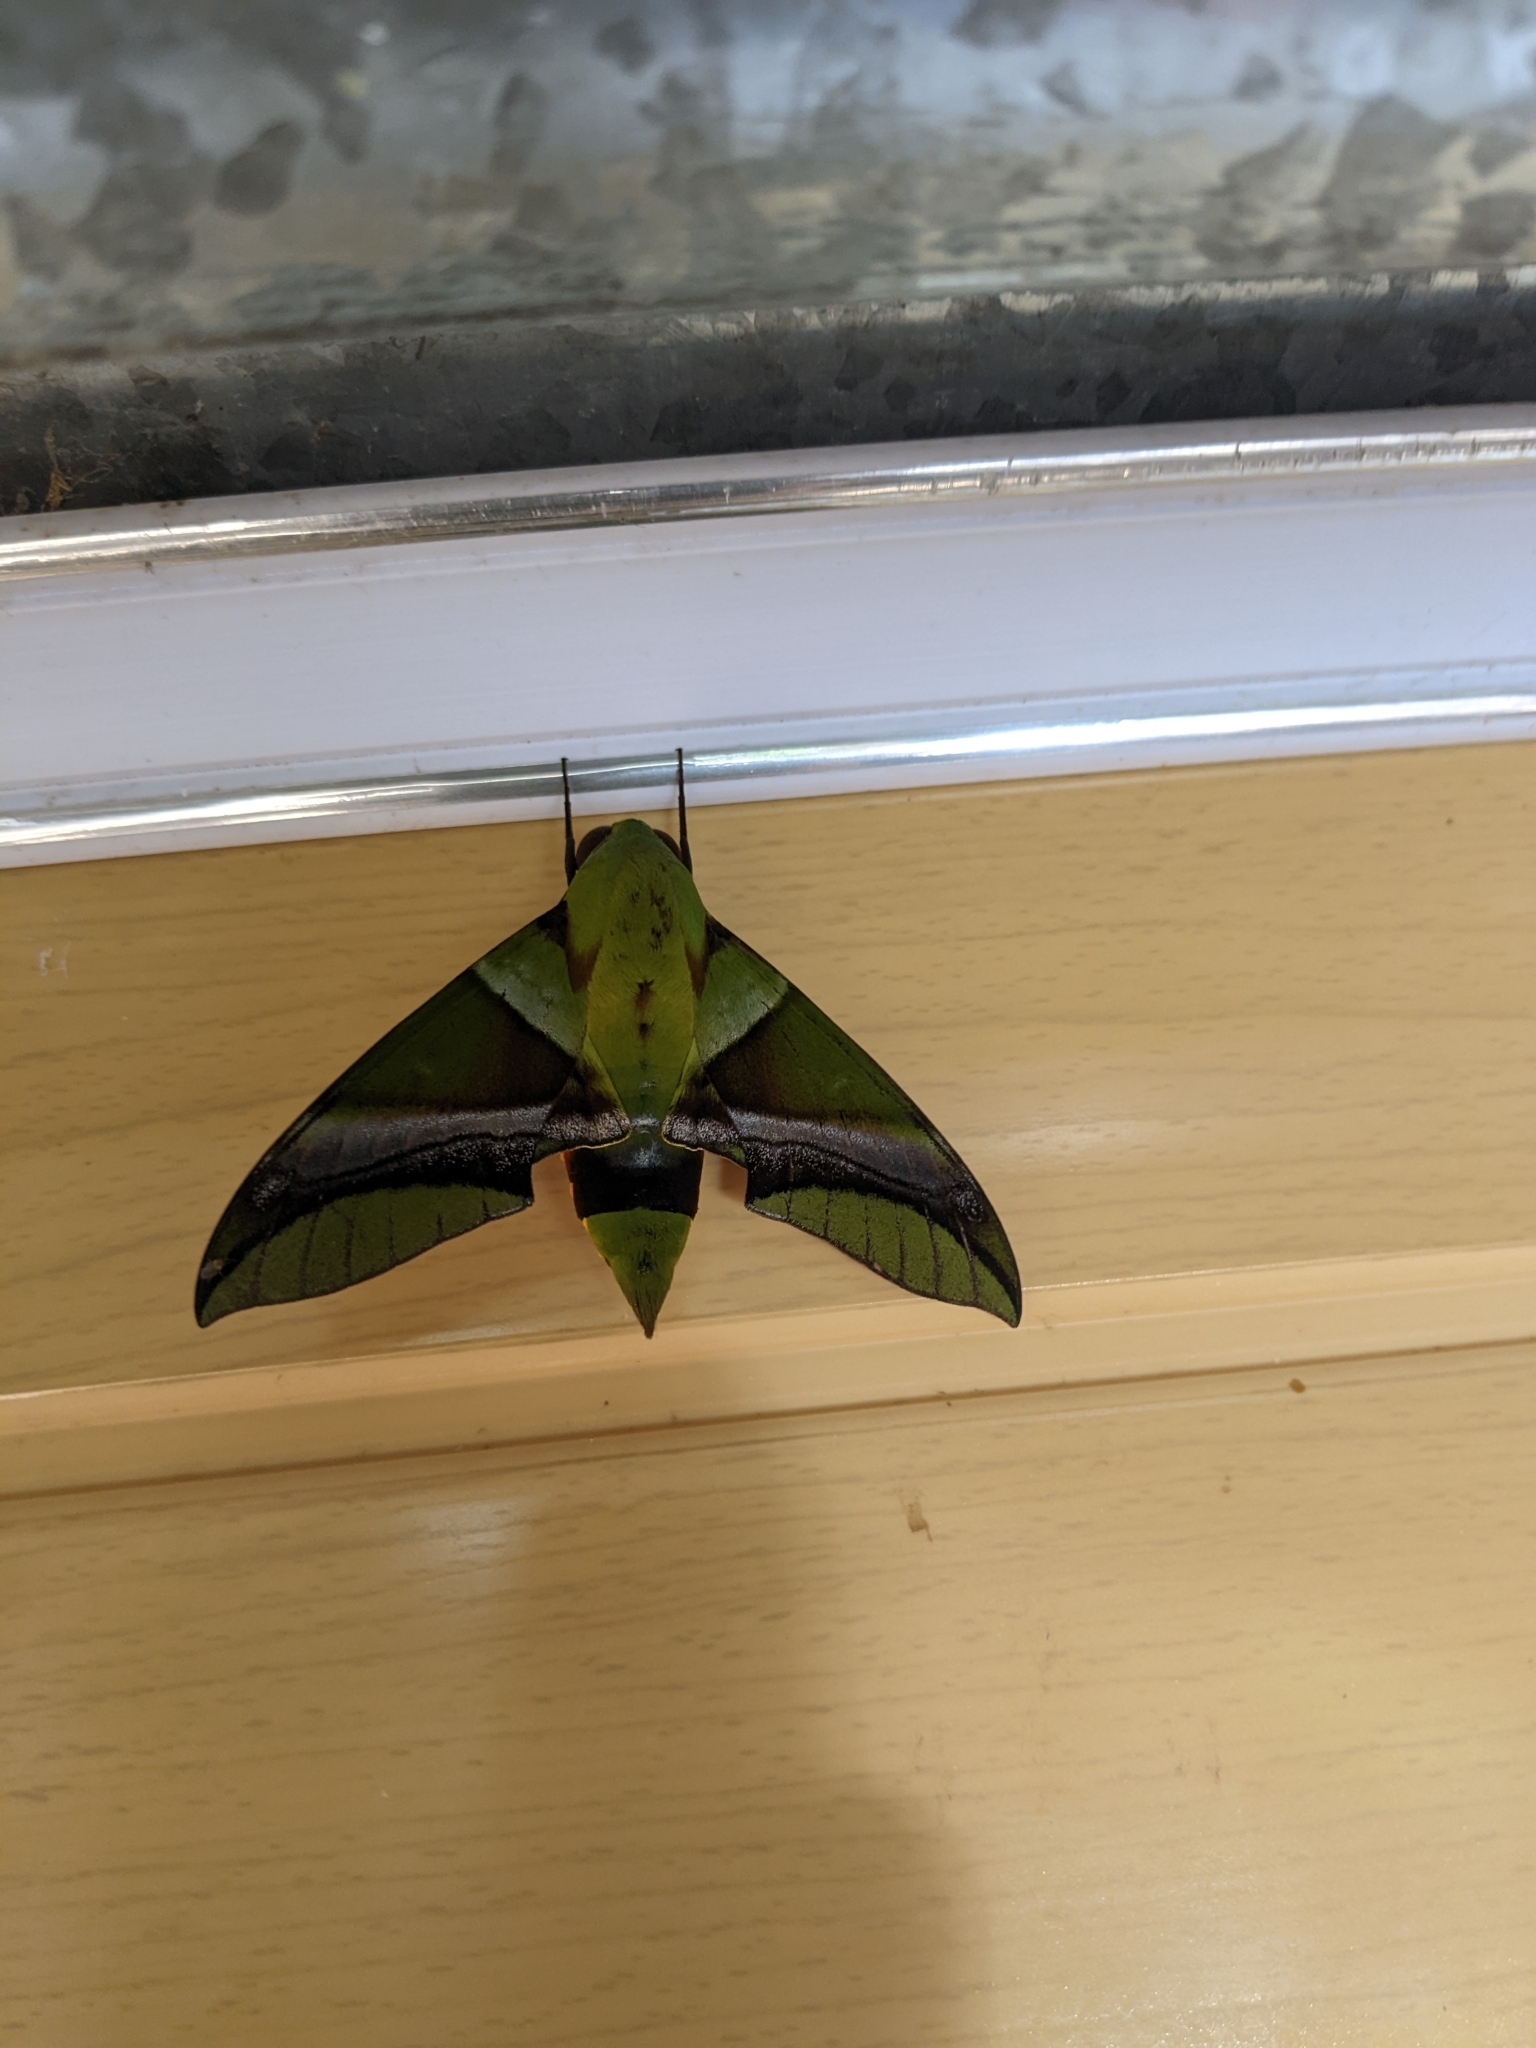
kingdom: Animalia
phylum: Arthropoda
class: Insecta
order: Lepidoptera
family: Sphingidae
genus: Oryba
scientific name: Oryba kadeni
